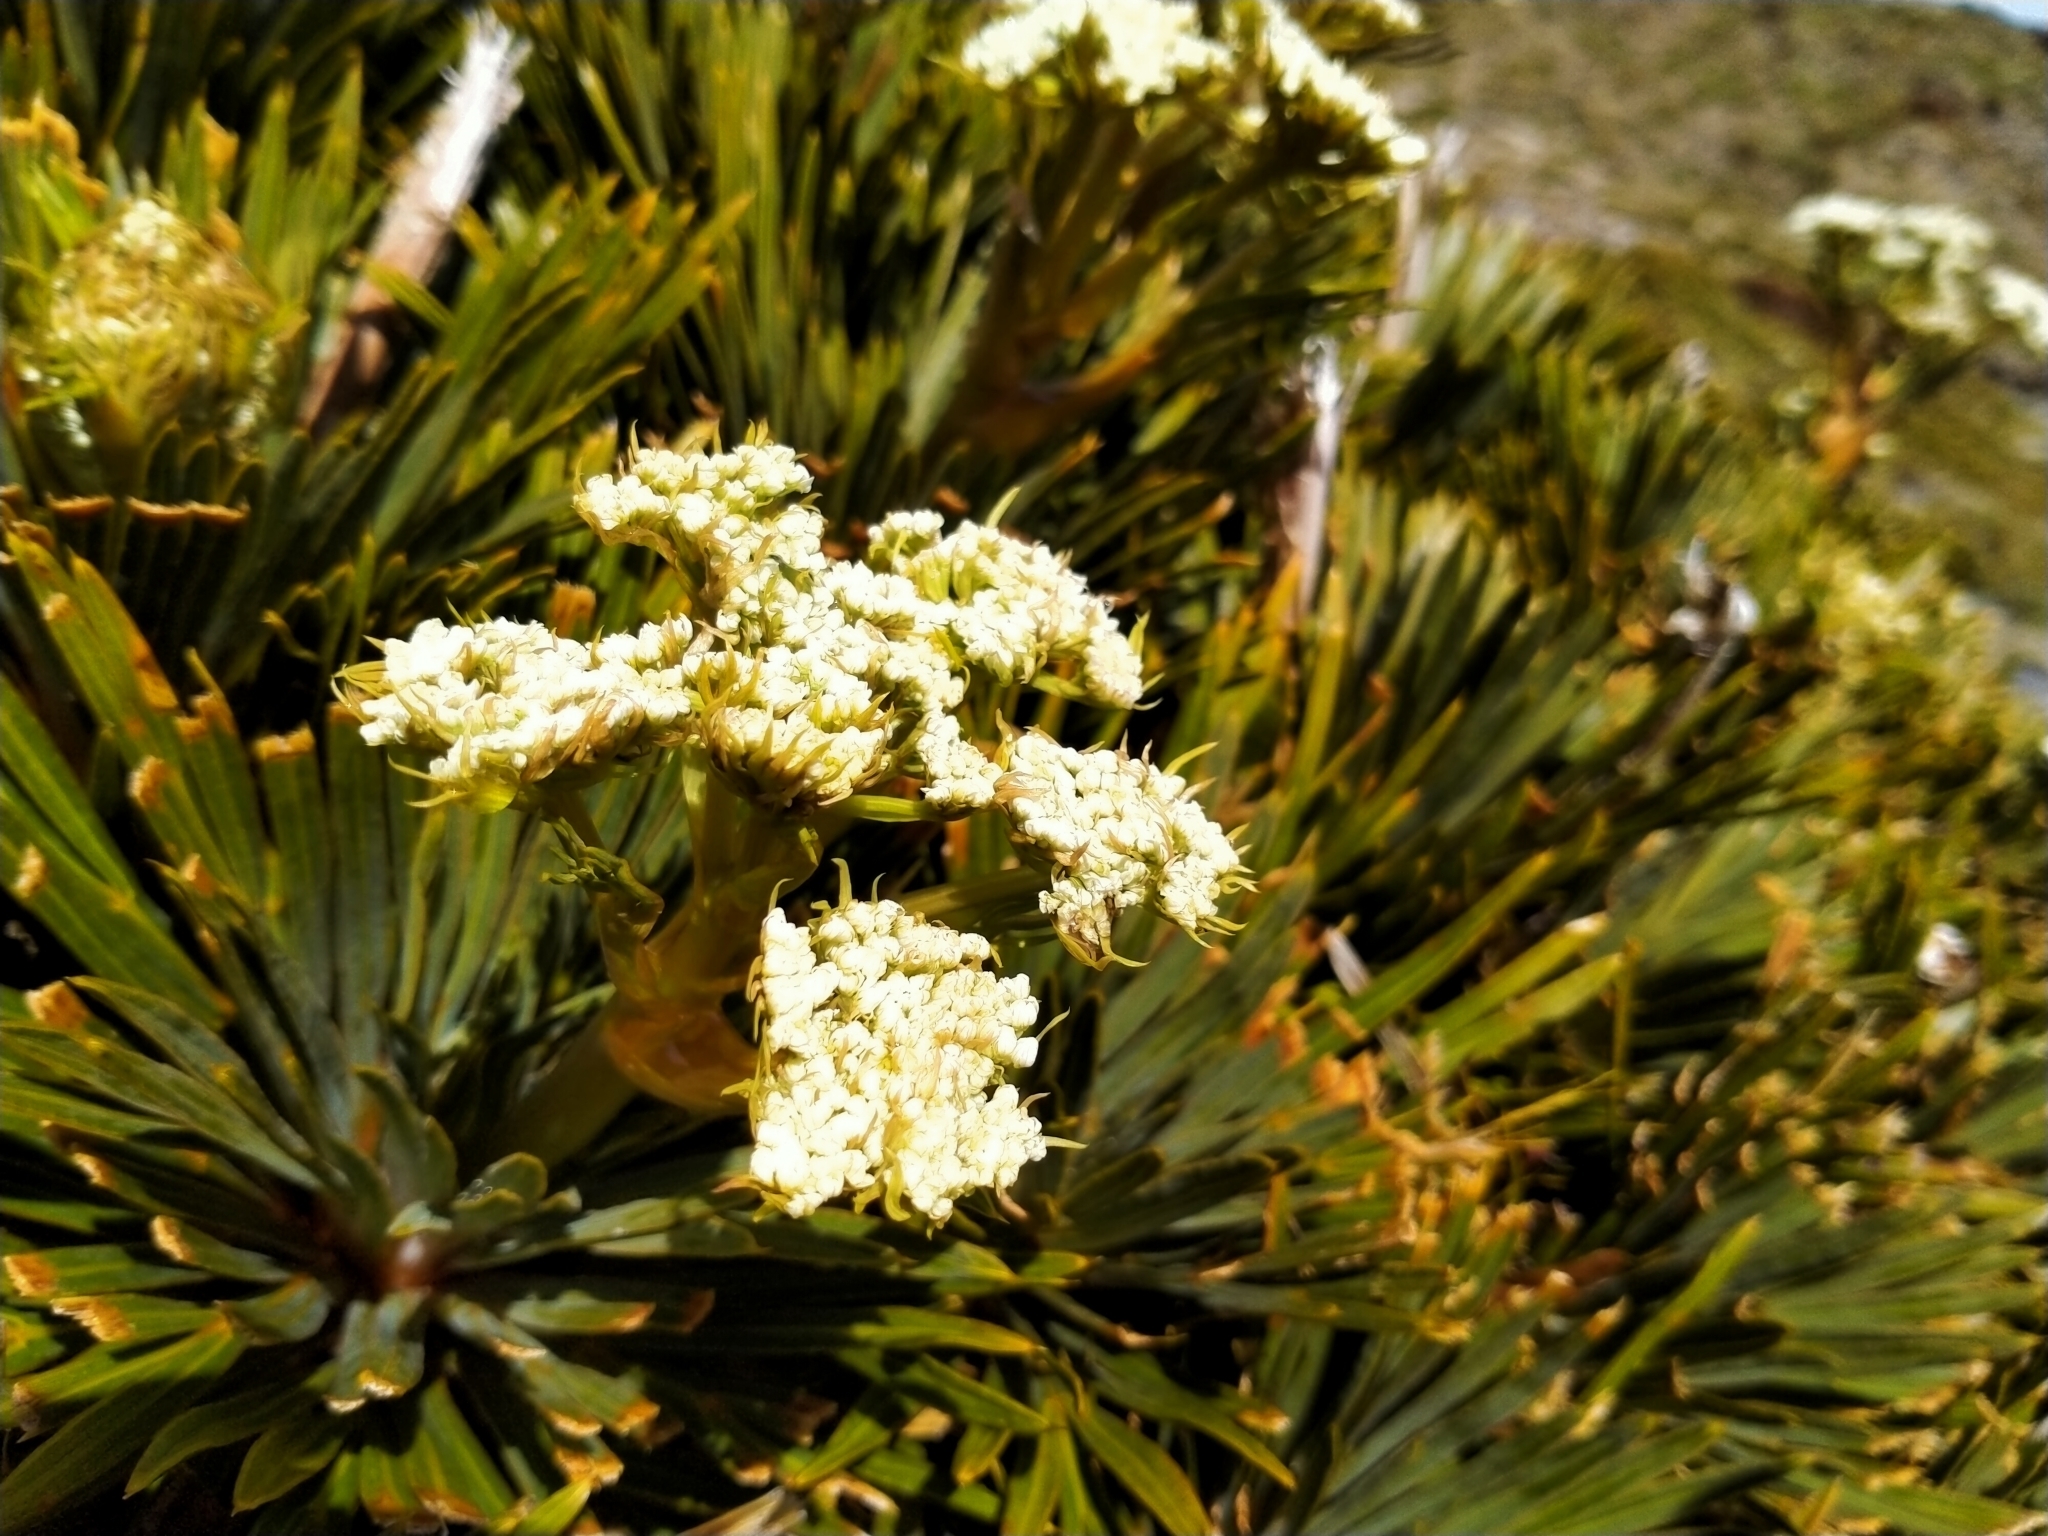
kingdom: Plantae
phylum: Tracheophyta
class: Magnoliopsida
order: Apiales
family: Apiaceae
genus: Aciphylla
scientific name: Aciphylla crosby-smithii
